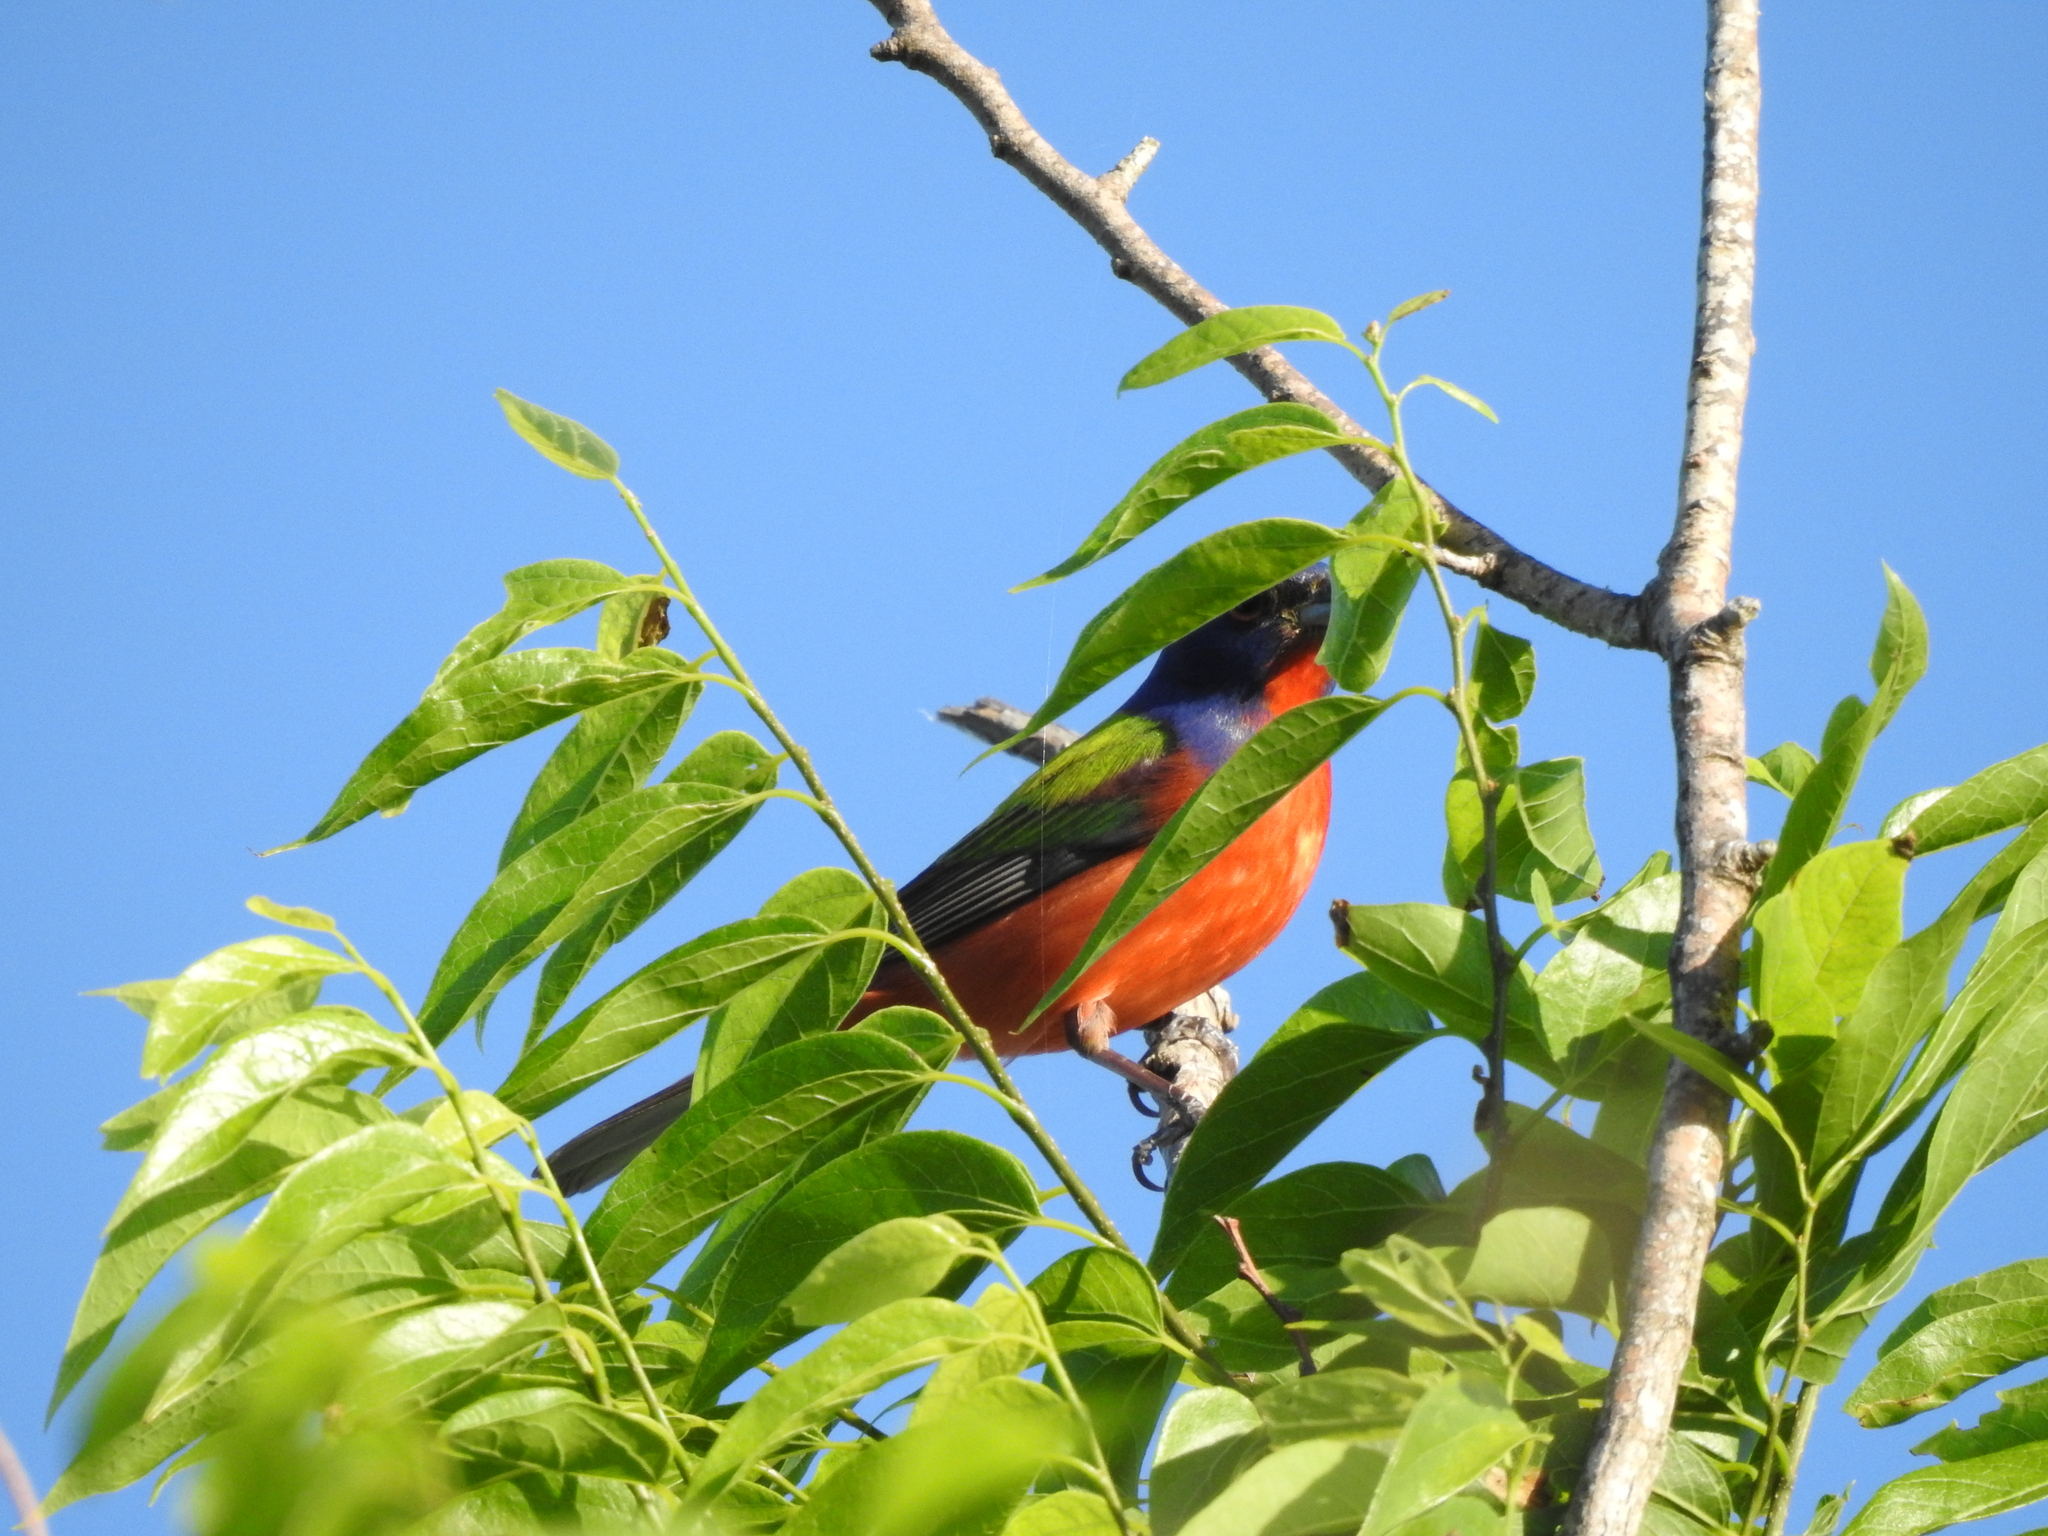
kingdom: Animalia
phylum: Chordata
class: Aves
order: Passeriformes
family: Cardinalidae
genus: Passerina
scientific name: Passerina ciris
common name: Painted bunting
